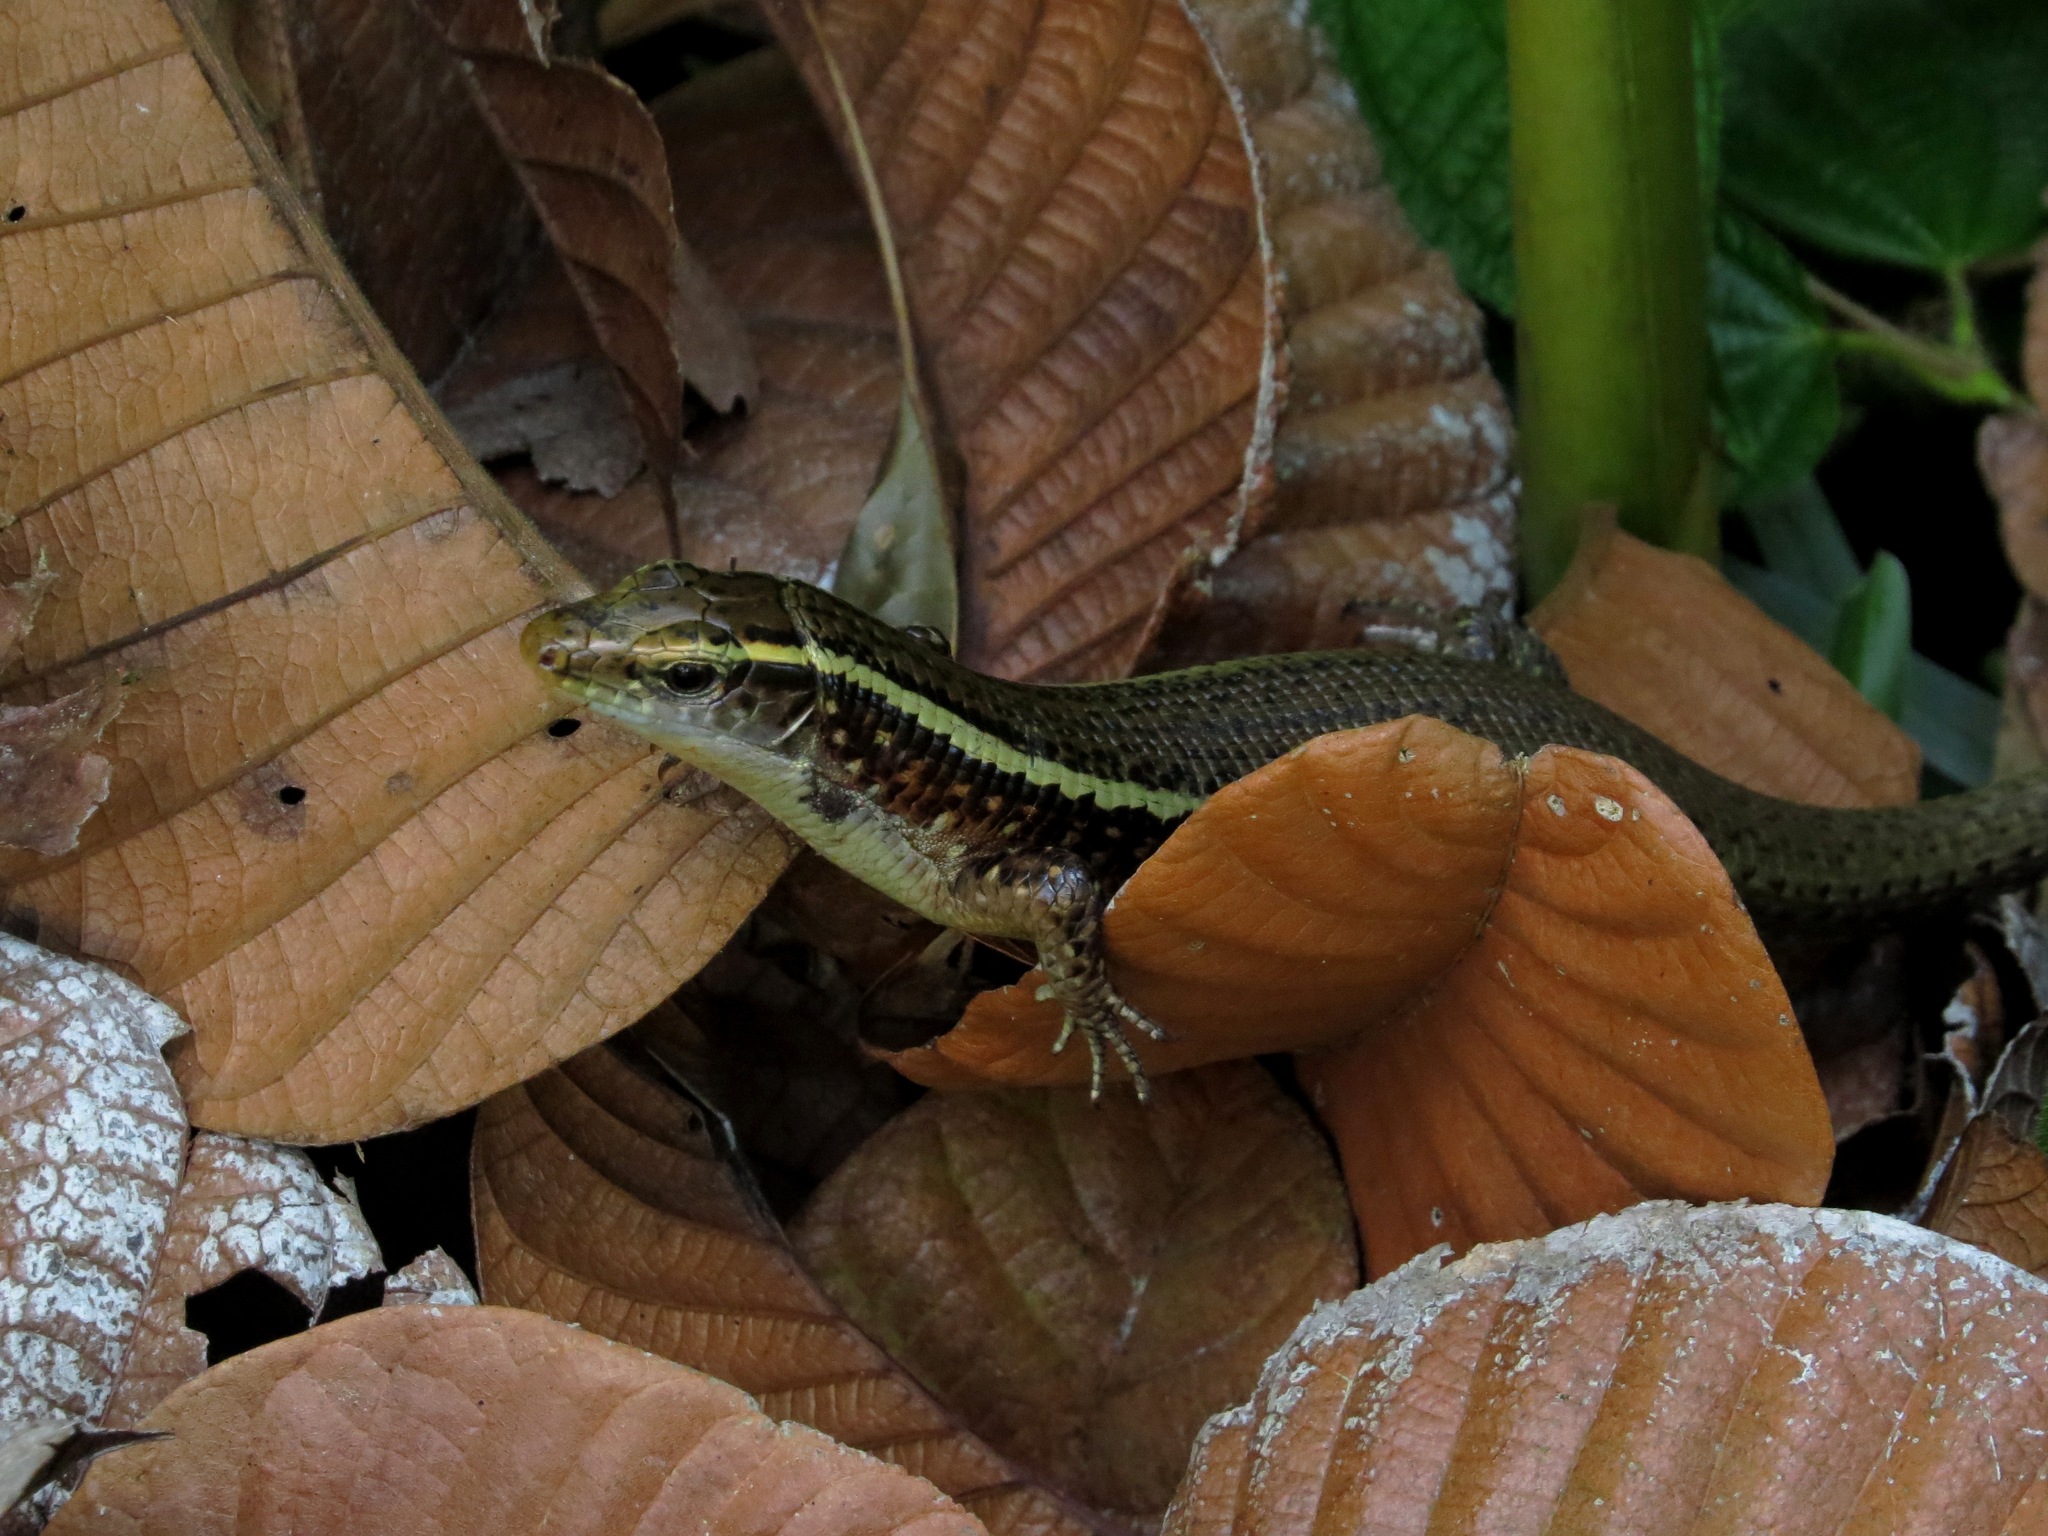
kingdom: Animalia
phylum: Chordata
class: Squamata
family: Gerrhosauridae
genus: Zonosaurus
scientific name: Zonosaurus madagascariensis
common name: Madagascar girdled lizard
